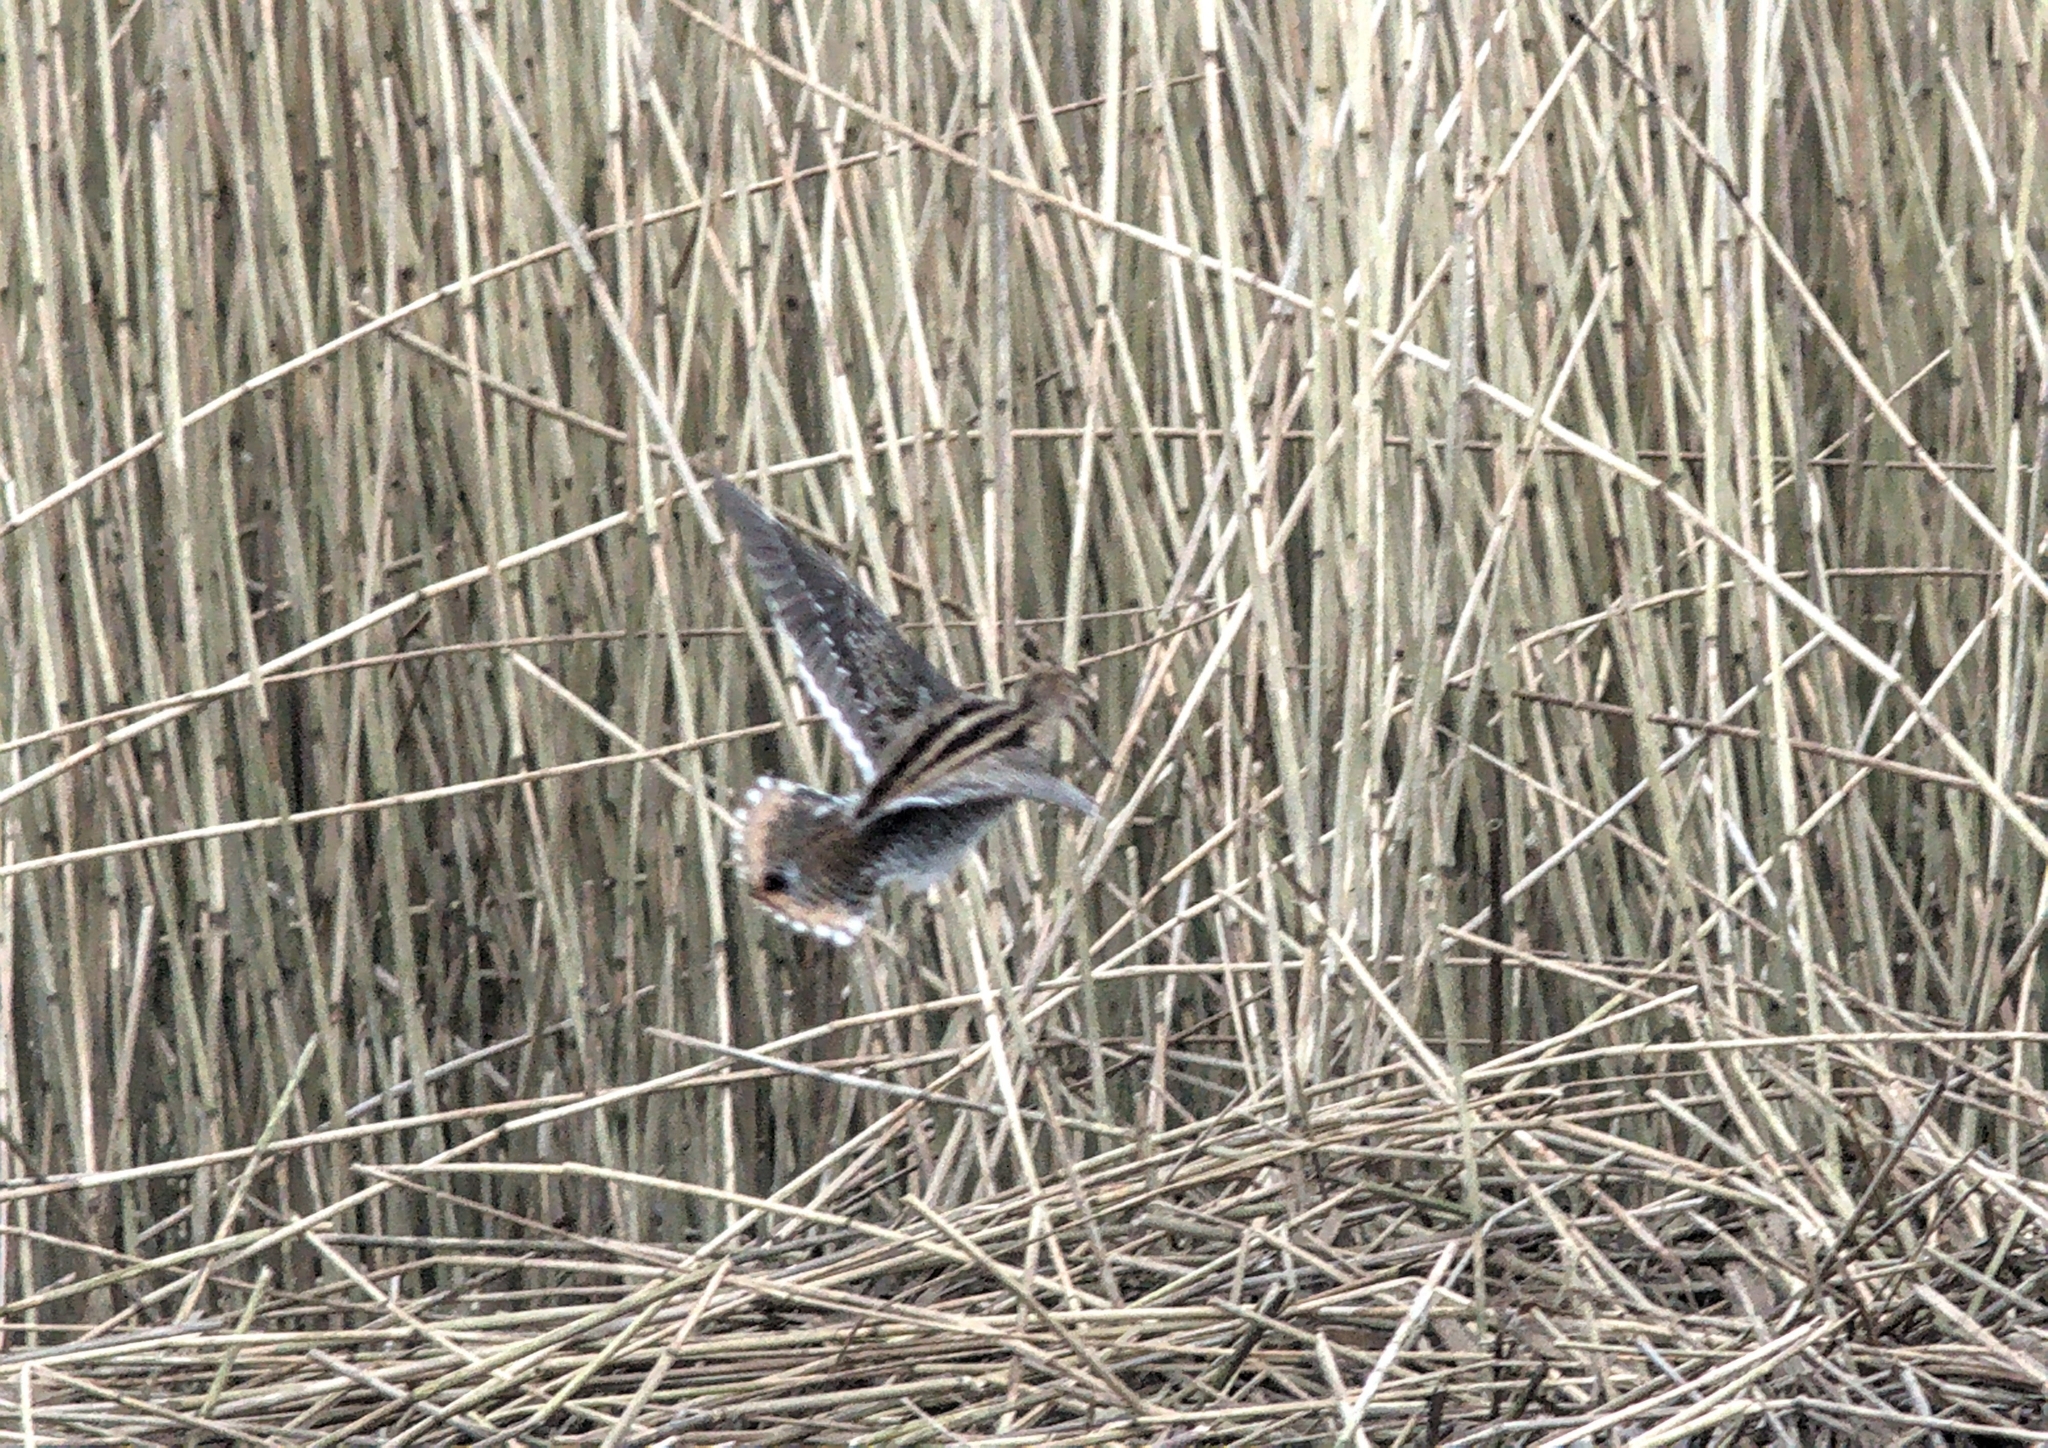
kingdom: Animalia
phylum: Chordata
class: Aves
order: Charadriiformes
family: Scolopacidae
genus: Gallinago
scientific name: Gallinago gallinago
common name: Common snipe
